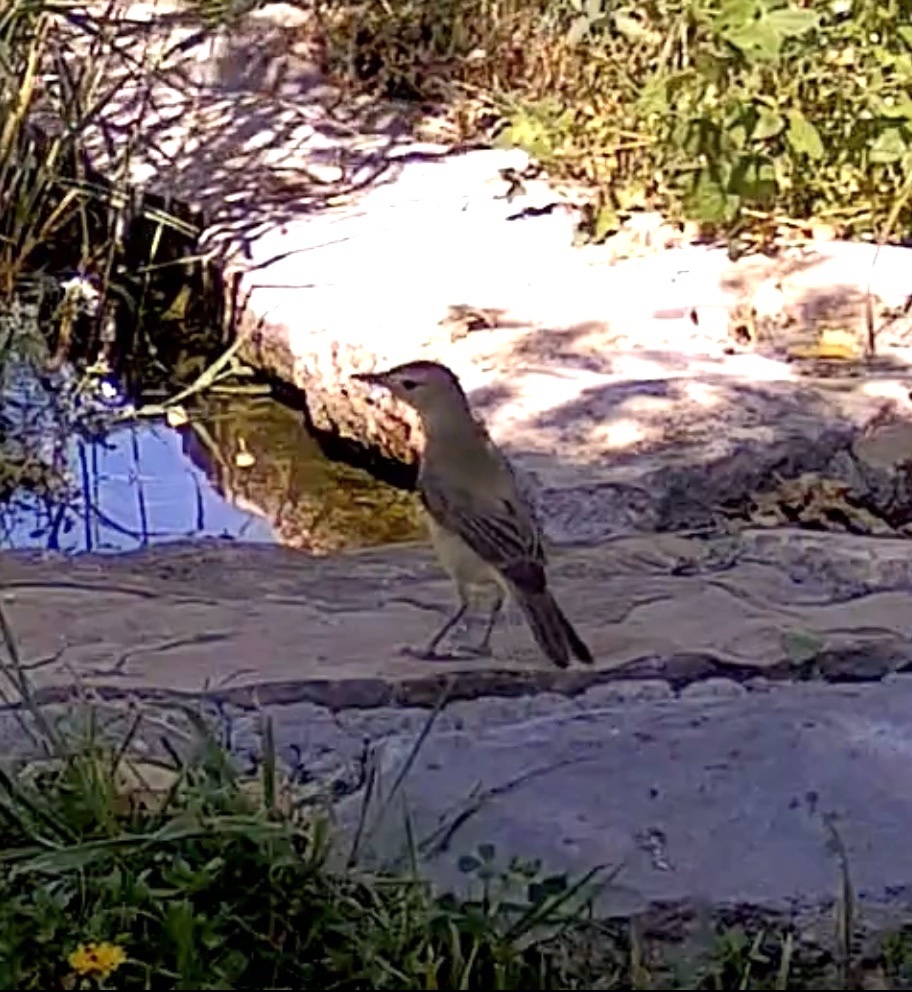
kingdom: Animalia
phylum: Chordata
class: Aves
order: Passeriformes
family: Acrocephalidae
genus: Hippolais
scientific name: Hippolais polyglotta
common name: Melodious warbler
